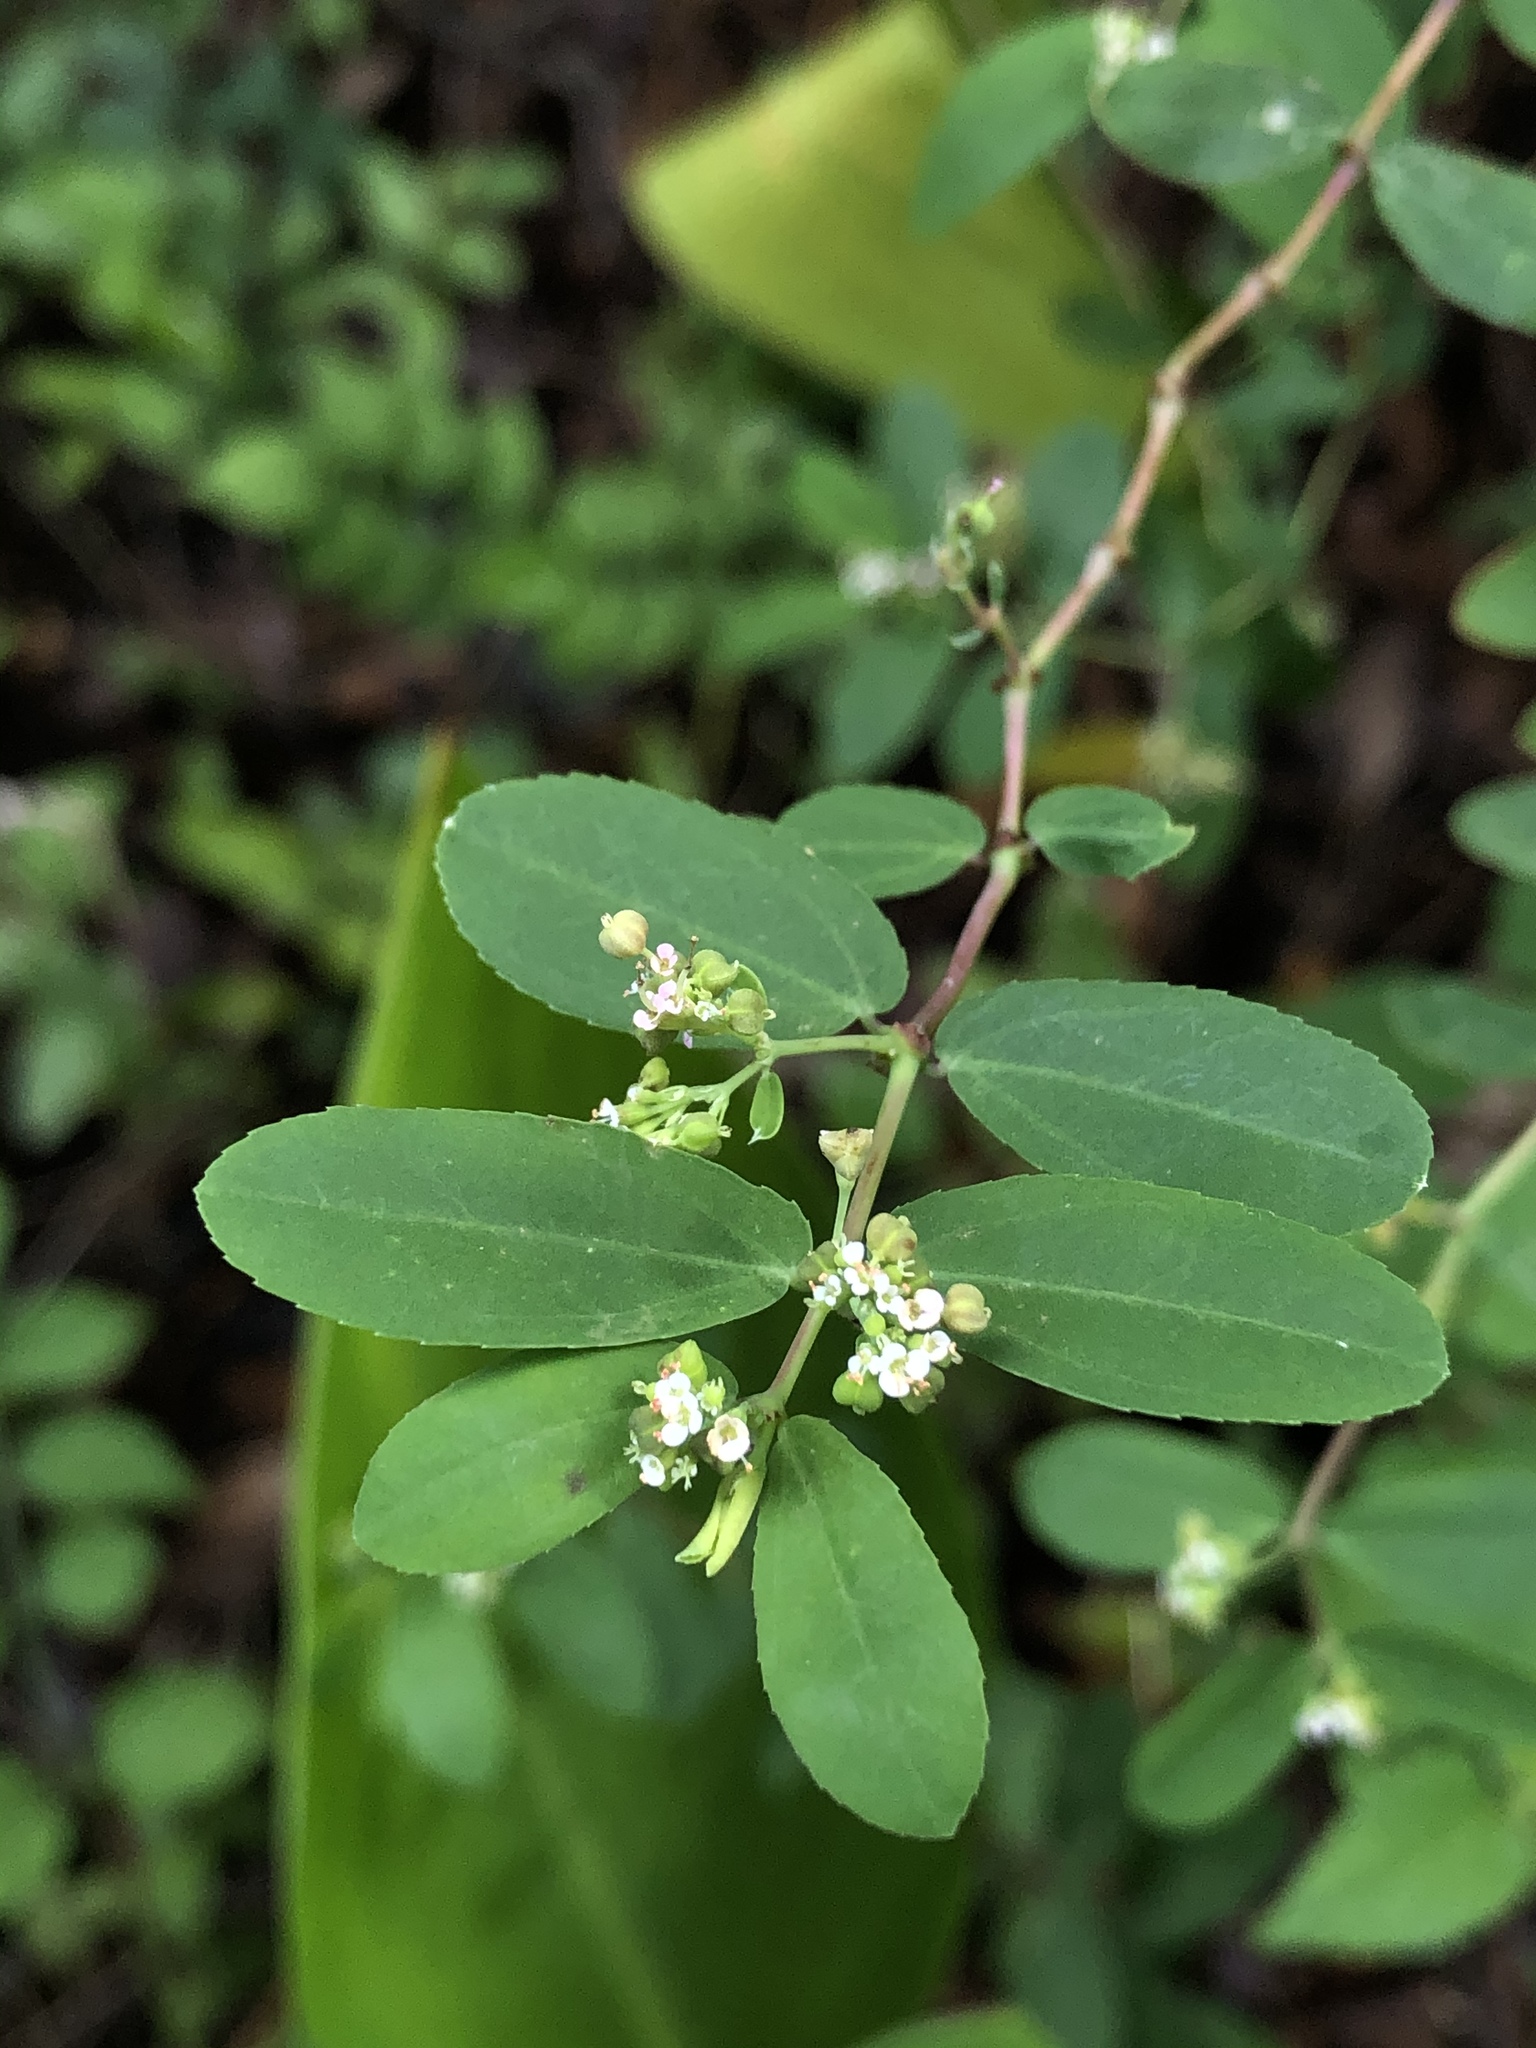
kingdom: Plantae
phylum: Tracheophyta
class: Magnoliopsida
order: Malpighiales
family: Euphorbiaceae
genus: Euphorbia
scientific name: Euphorbia hypericifolia
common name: Graceful sandmat
